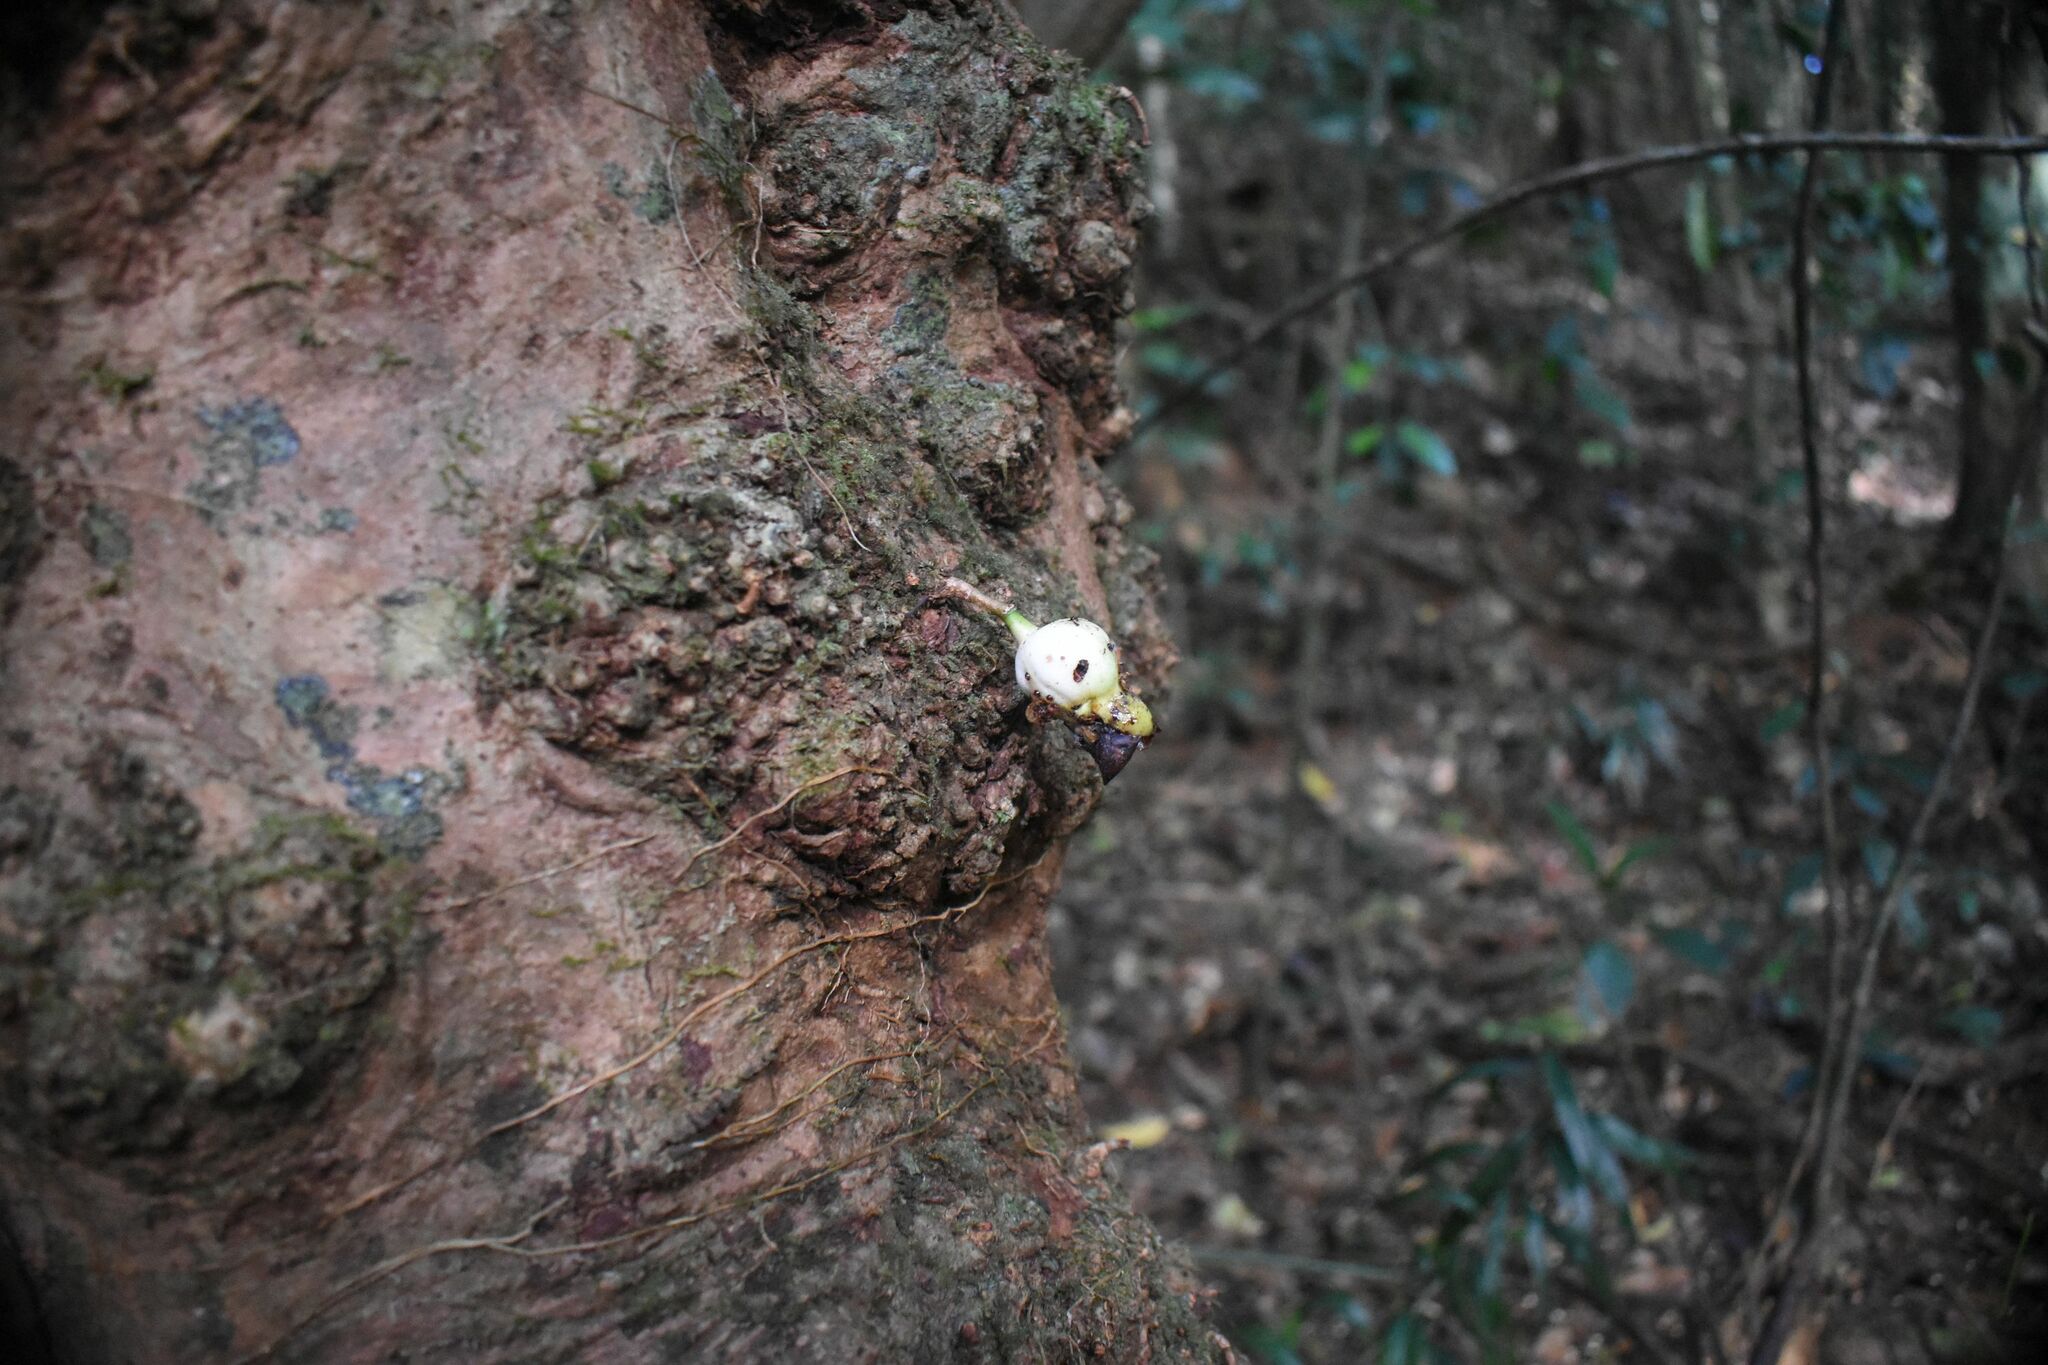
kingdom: Plantae
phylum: Tracheophyta
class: Magnoliopsida
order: Myrtales
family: Myrtaceae
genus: Syzygium
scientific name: Syzygium cormiflorum
